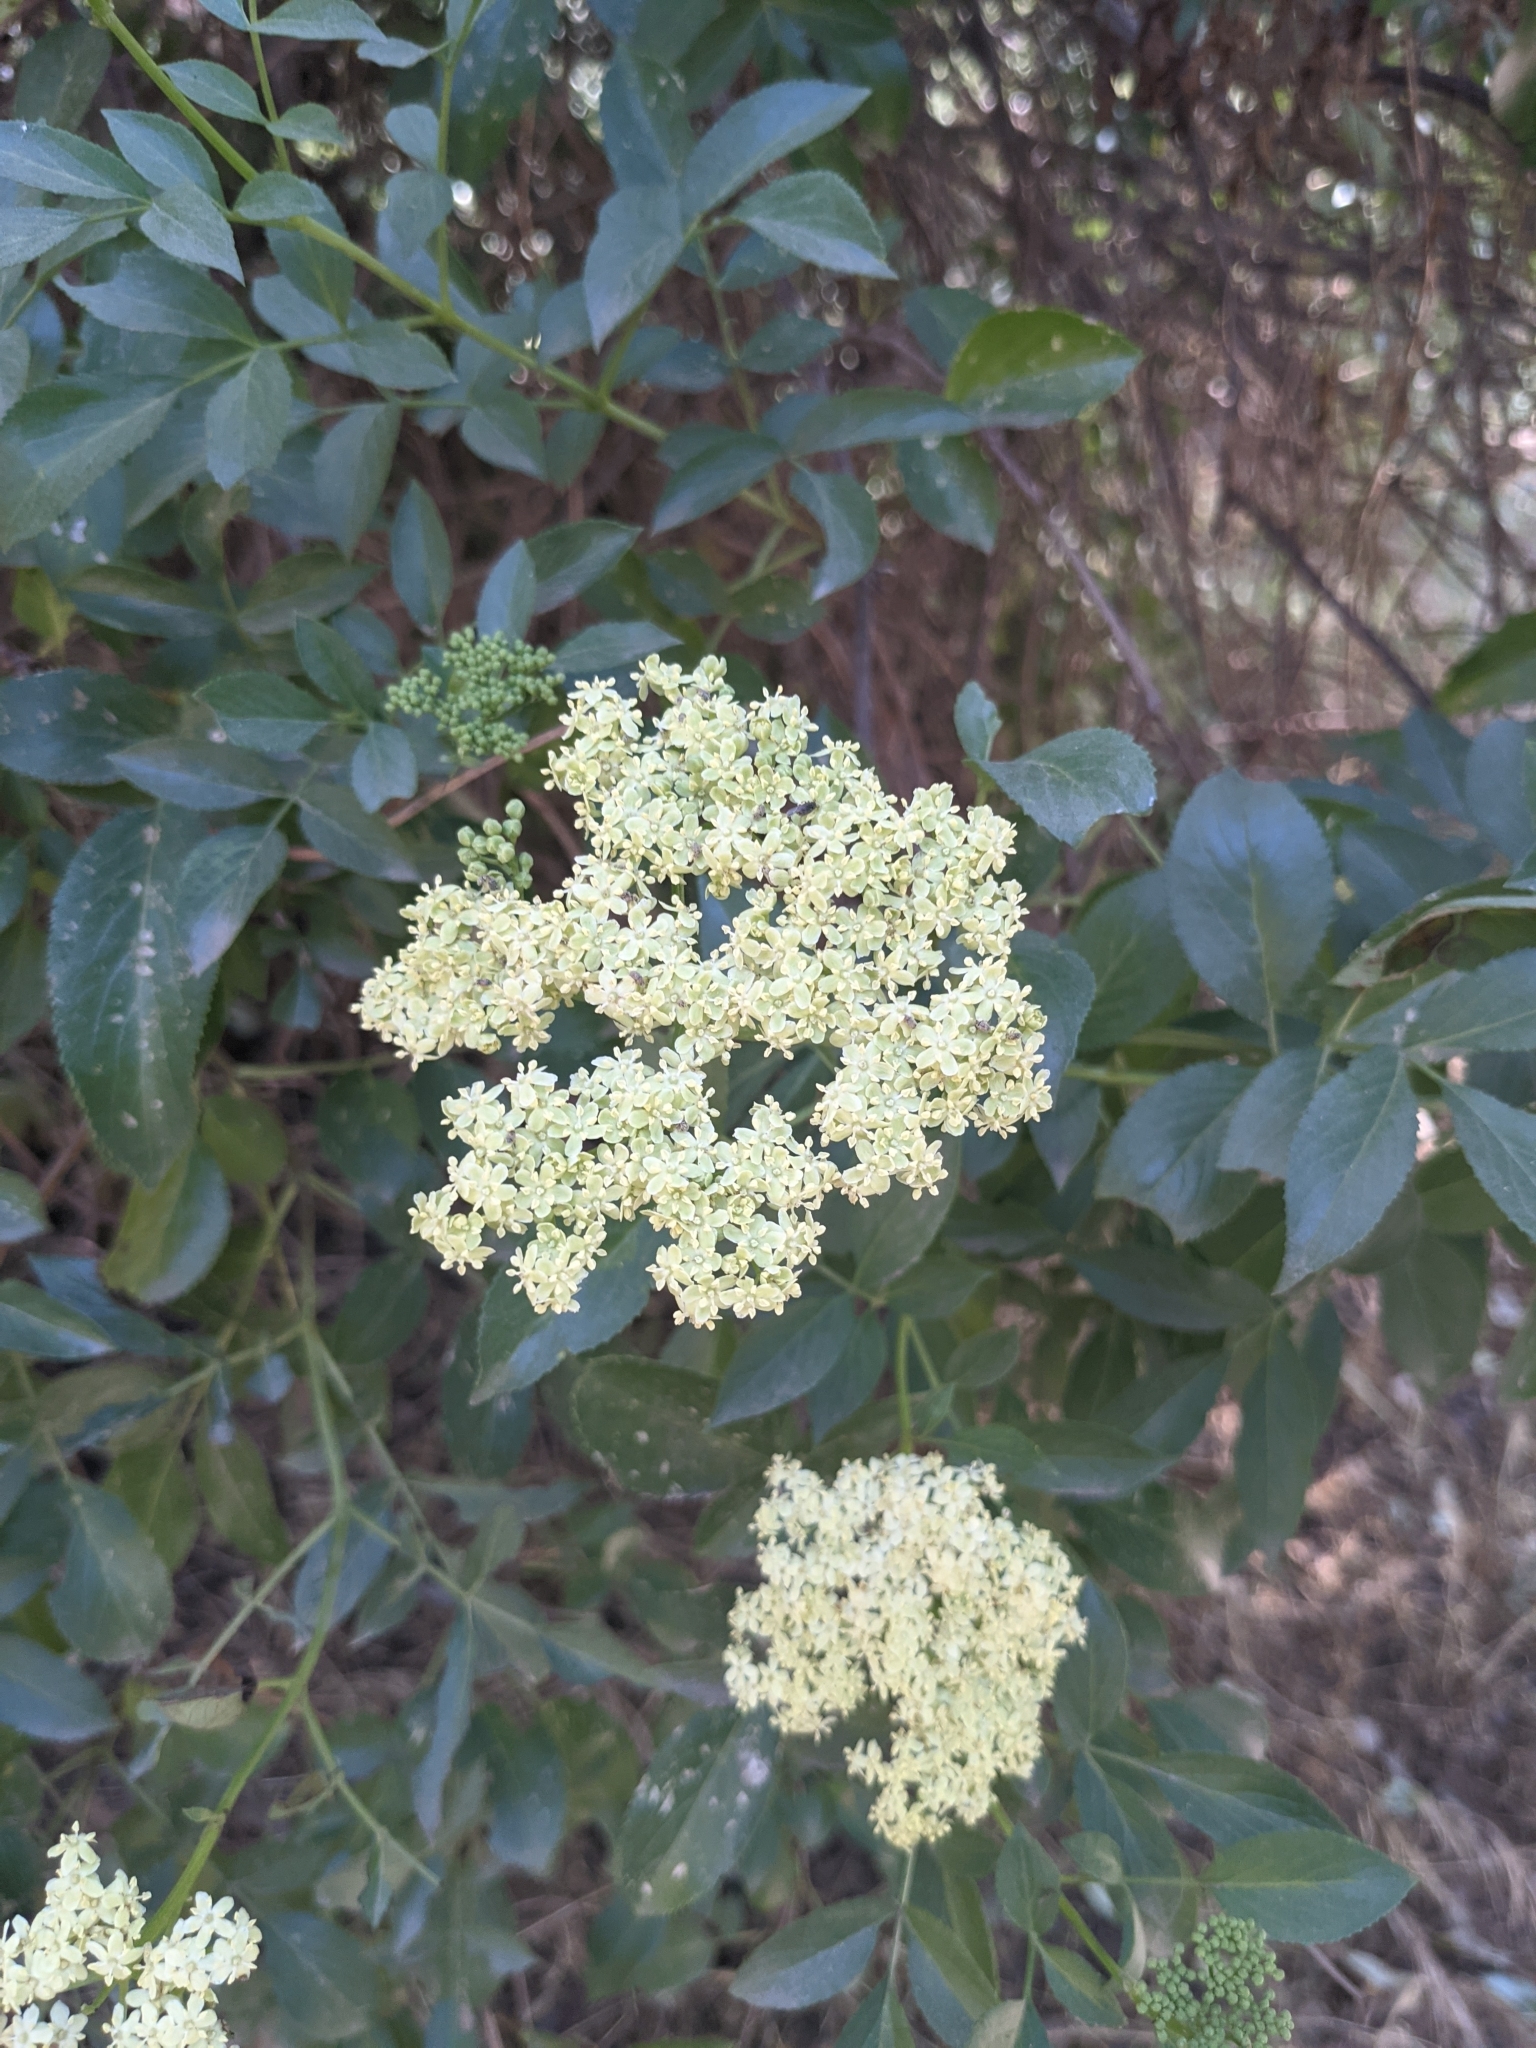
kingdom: Plantae
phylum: Tracheophyta
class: Magnoliopsida
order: Dipsacales
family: Viburnaceae
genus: Sambucus
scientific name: Sambucus cerulea
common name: Blue elder
